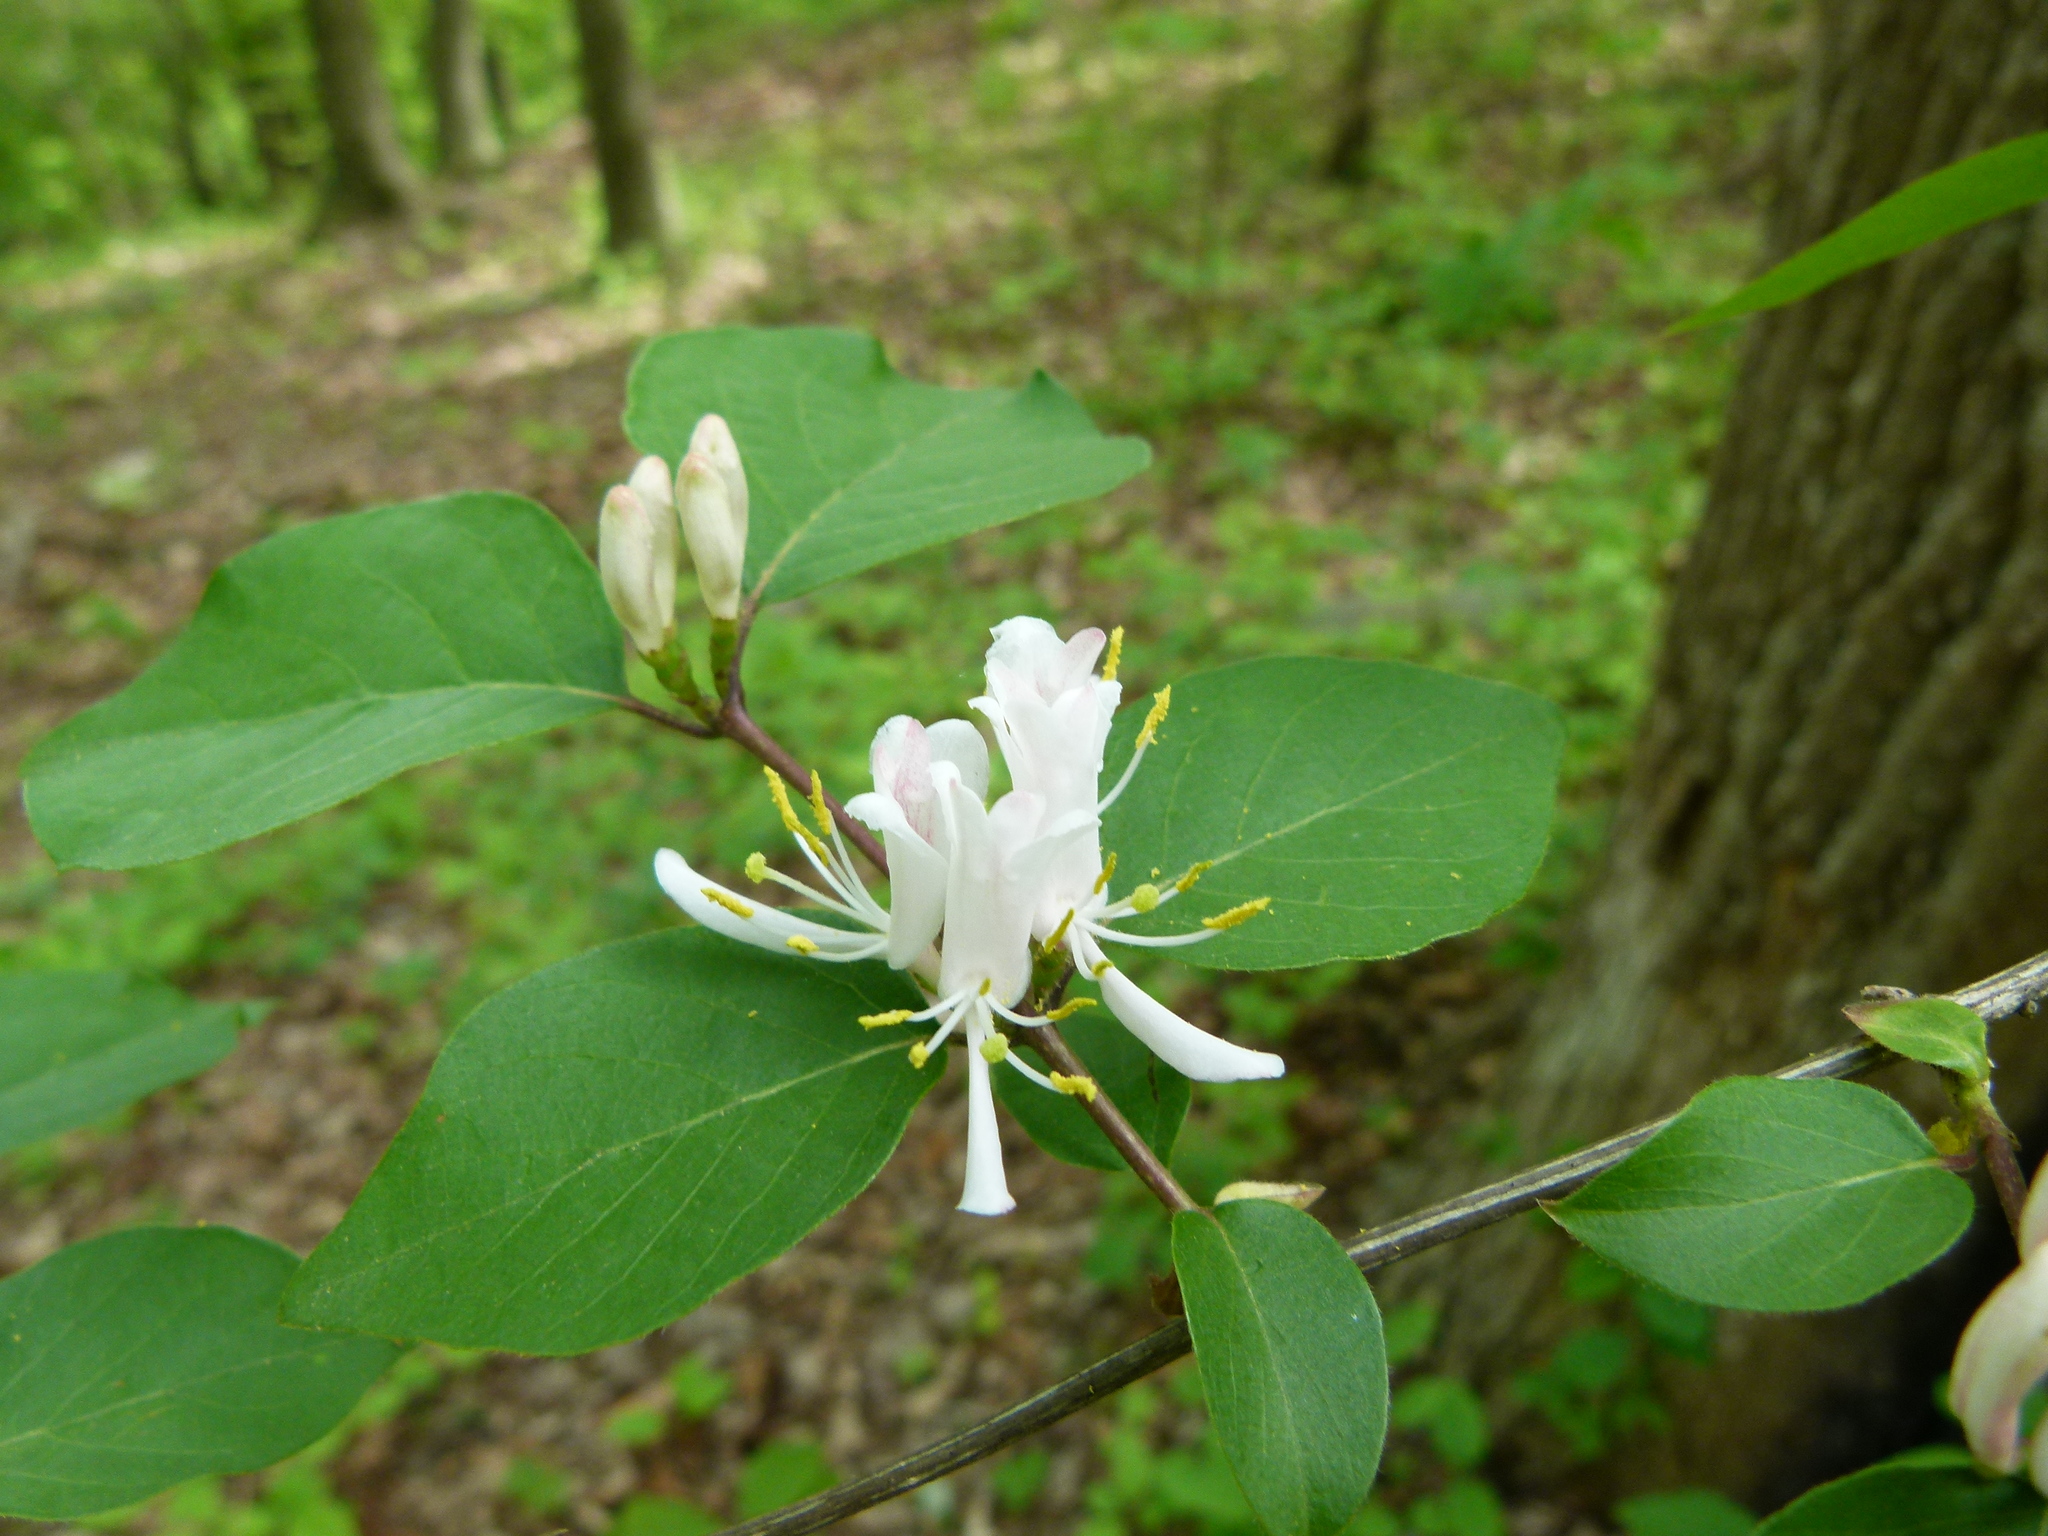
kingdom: Plantae
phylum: Tracheophyta
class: Magnoliopsida
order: Dipsacales
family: Caprifoliaceae
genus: Lonicera
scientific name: Lonicera maackii
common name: Amur honeysuckle
